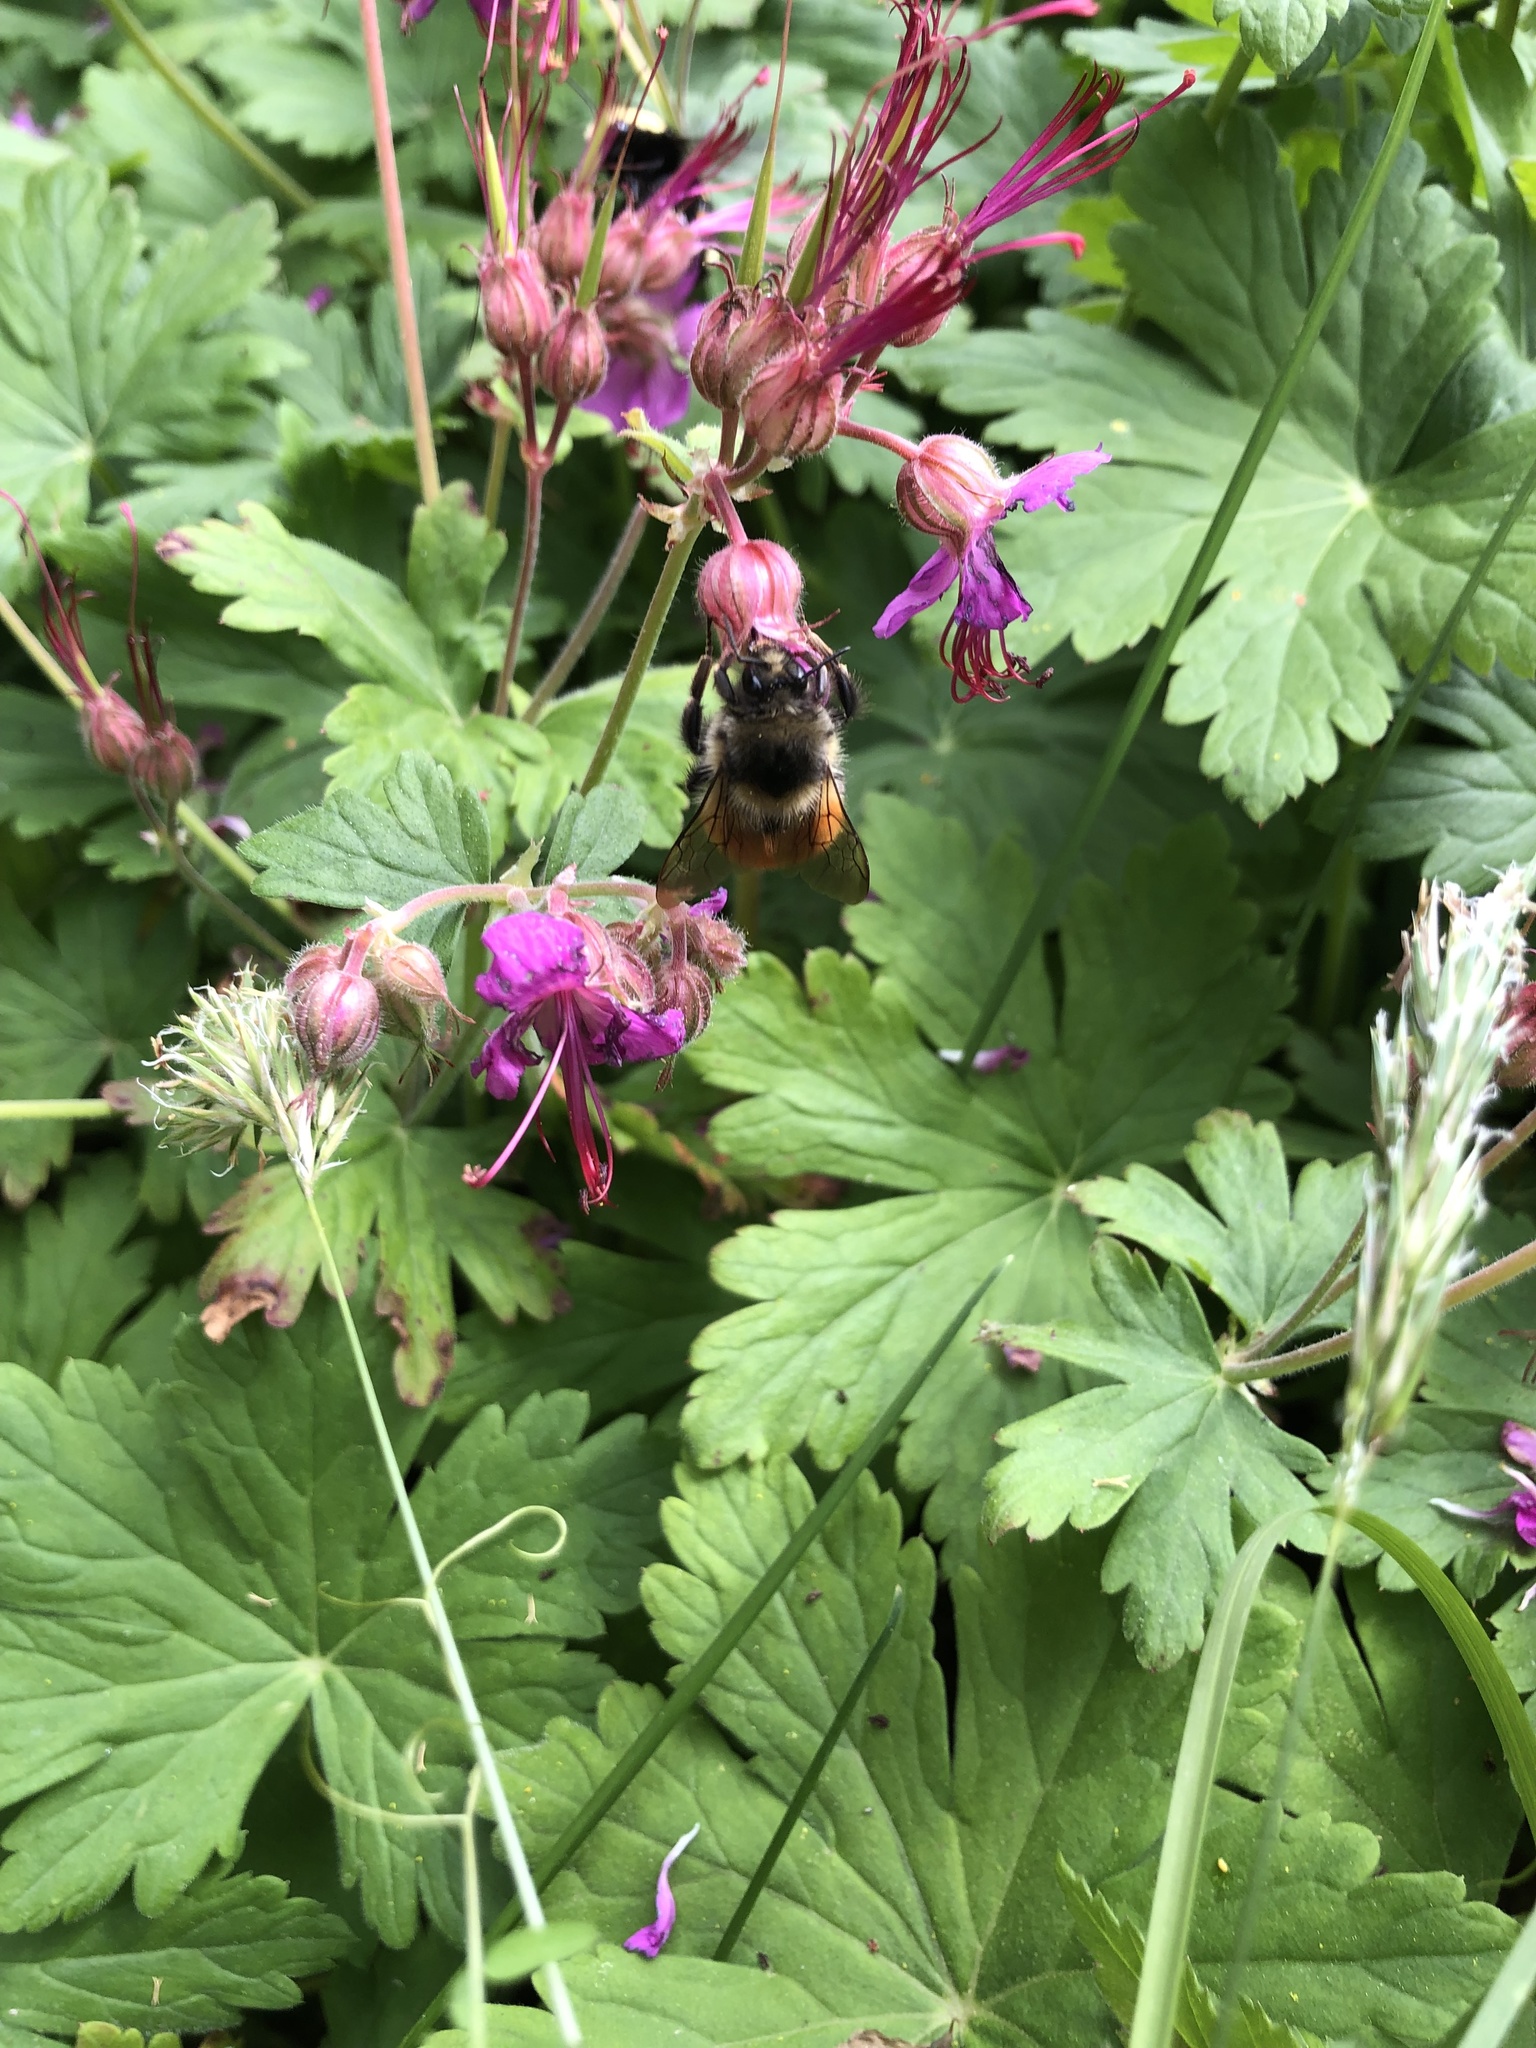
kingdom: Animalia
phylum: Arthropoda
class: Insecta
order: Hymenoptera
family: Apidae
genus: Bombus
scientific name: Bombus melanopygus
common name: Black tail bumble bee
